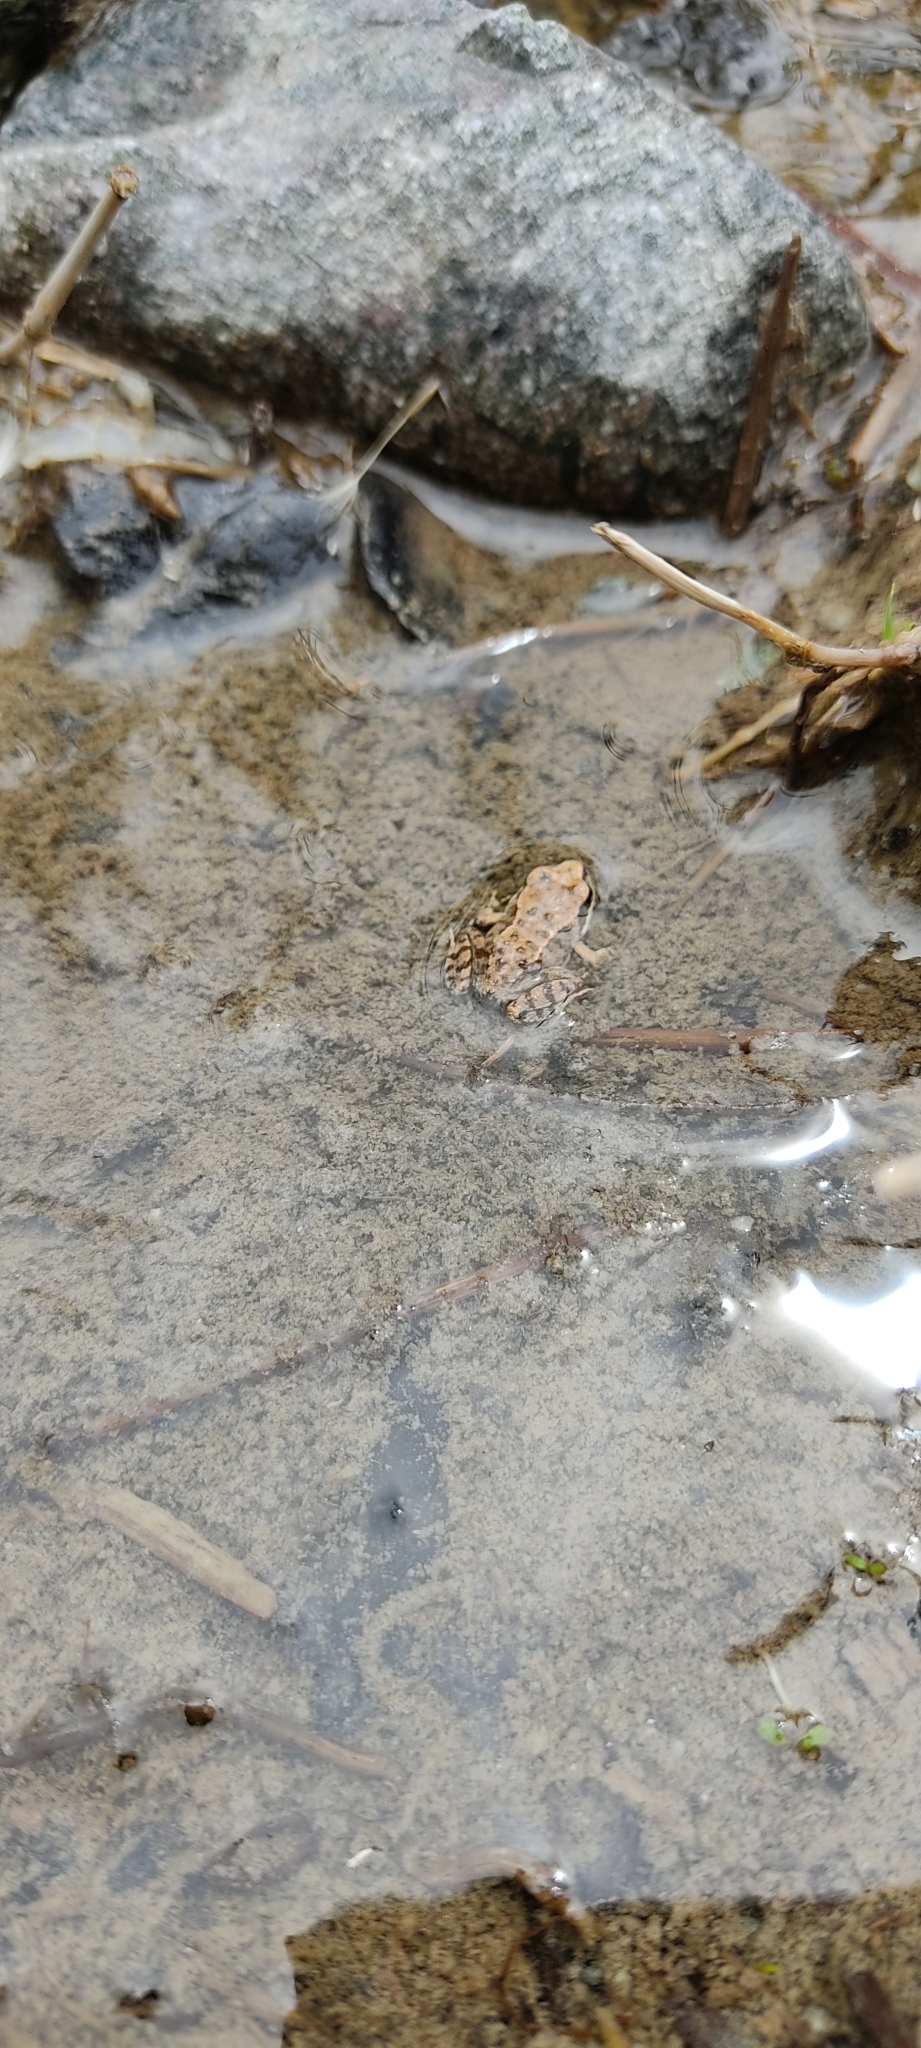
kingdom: Animalia
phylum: Chordata
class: Amphibia
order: Anura
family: Ranidae
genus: Rana
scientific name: Rana temporaria
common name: Common frog
